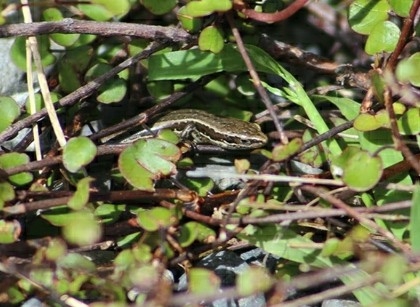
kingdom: Animalia
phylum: Chordata
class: Squamata
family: Scincidae
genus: Oligosoma
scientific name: Oligosoma polychroma
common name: Common new zealand skink
